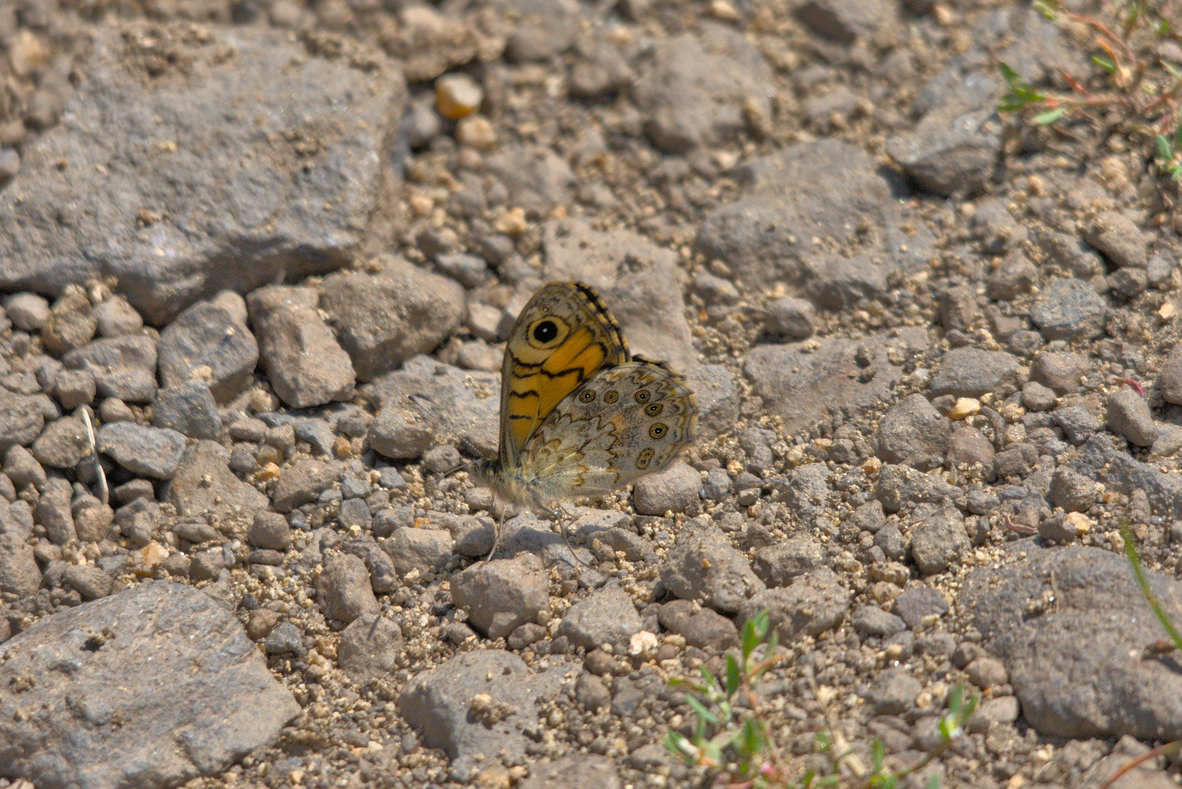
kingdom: Animalia
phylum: Arthropoda
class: Insecta
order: Lepidoptera
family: Nymphalidae
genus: Pararge
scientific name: Pararge Lasiommata megera
